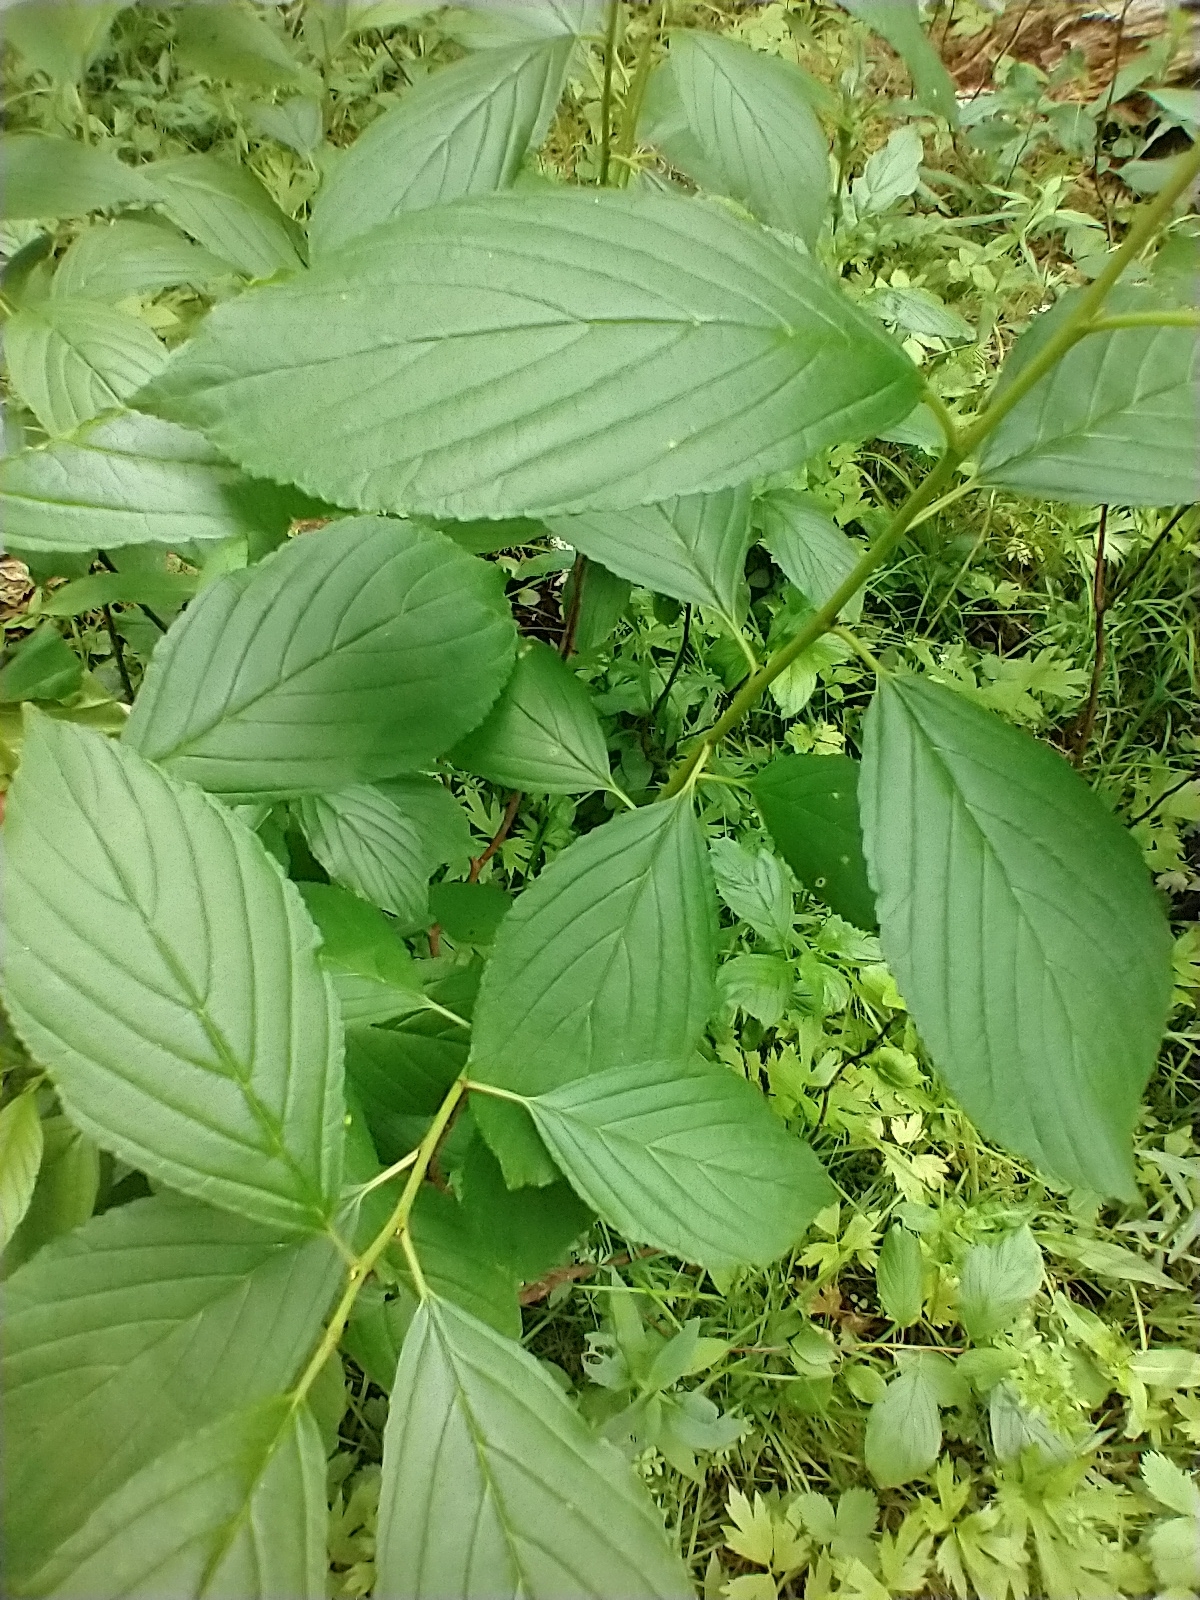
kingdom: Plantae
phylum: Tracheophyta
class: Magnoliopsida
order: Rosales
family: Rhamnaceae
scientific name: Rhamnaceae
